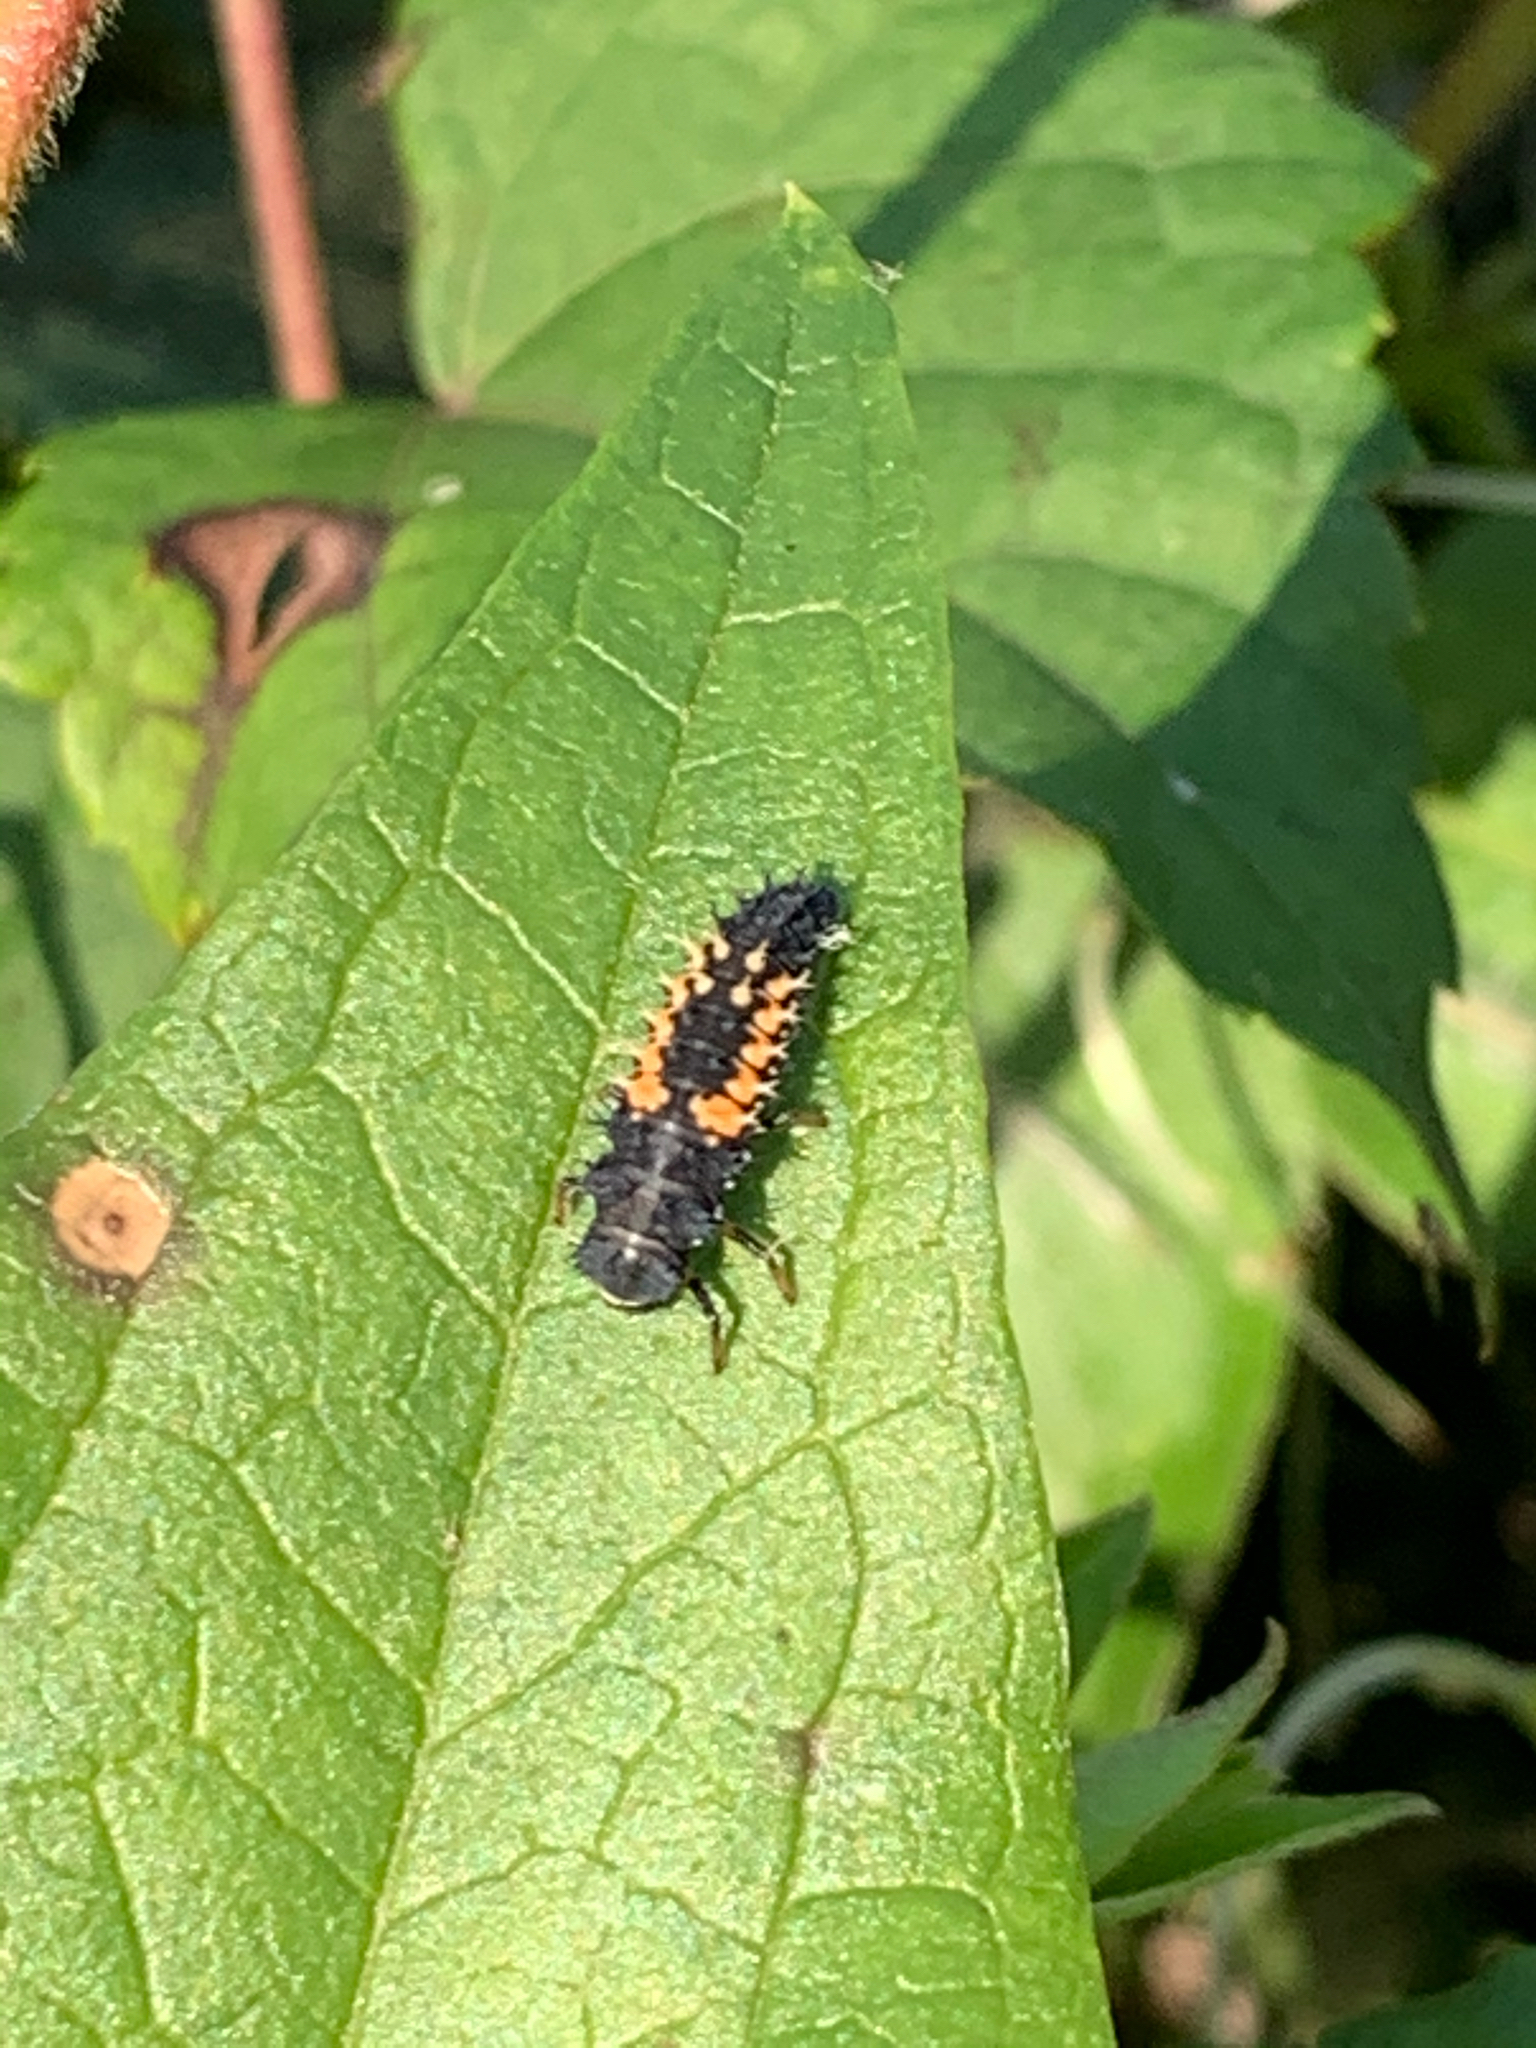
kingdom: Animalia
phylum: Arthropoda
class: Insecta
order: Coleoptera
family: Coccinellidae
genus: Harmonia
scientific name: Harmonia axyridis
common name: Harlequin ladybird
